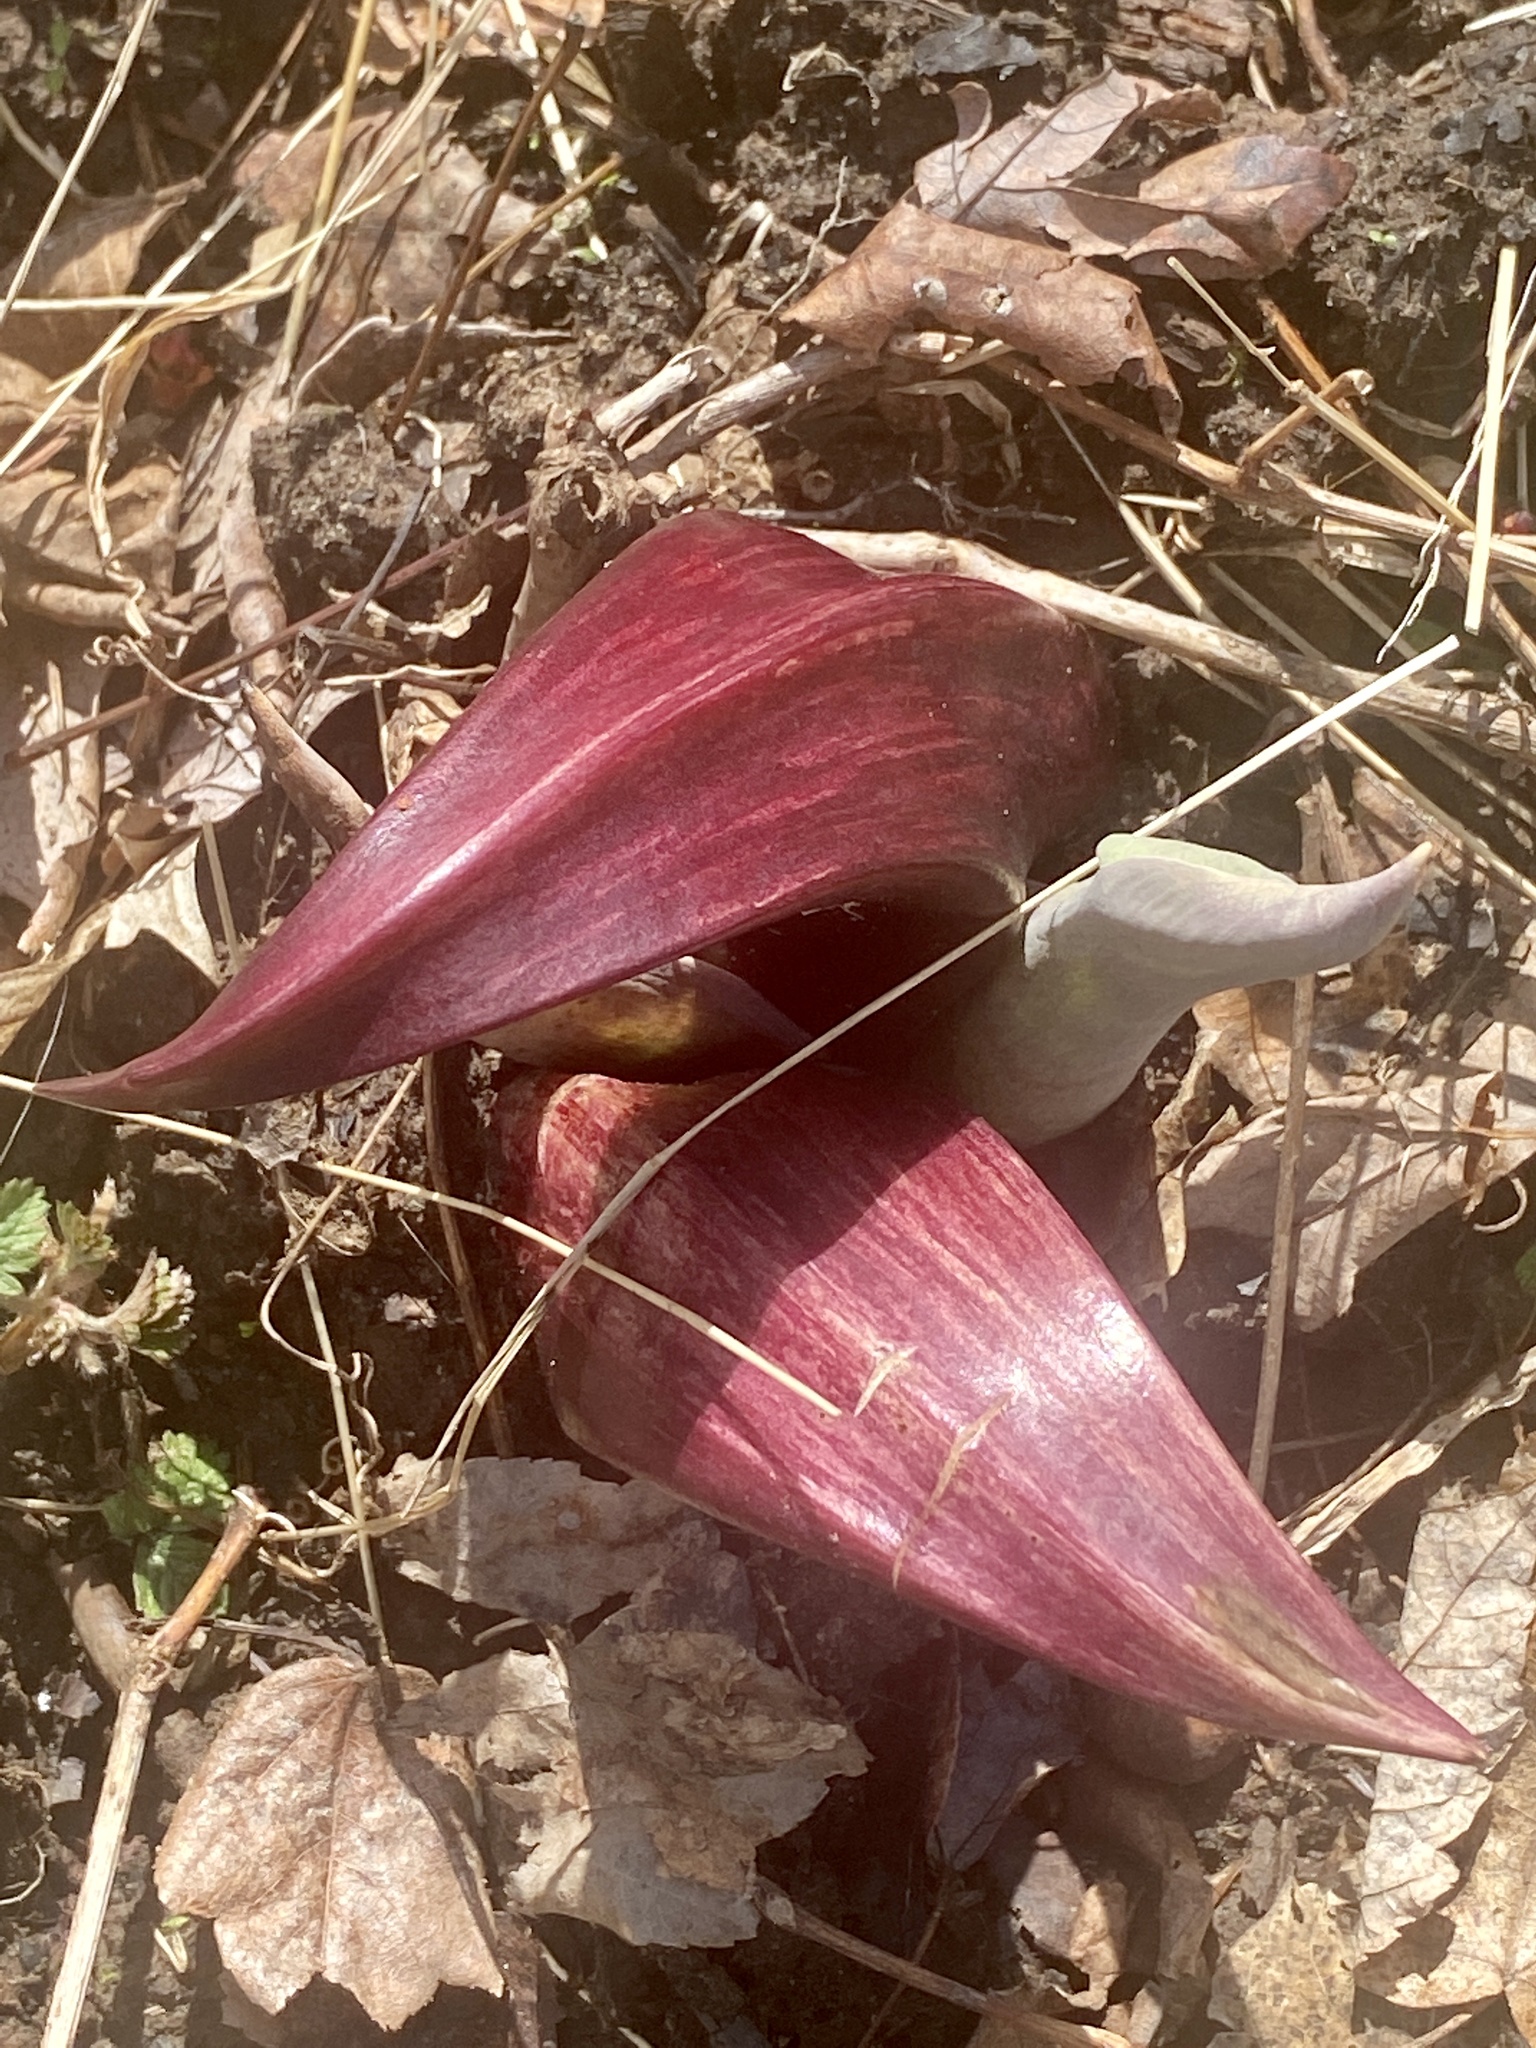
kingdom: Plantae
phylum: Tracheophyta
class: Liliopsida
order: Alismatales
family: Araceae
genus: Symplocarpus
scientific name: Symplocarpus foetidus
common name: Eastern skunk cabbage
